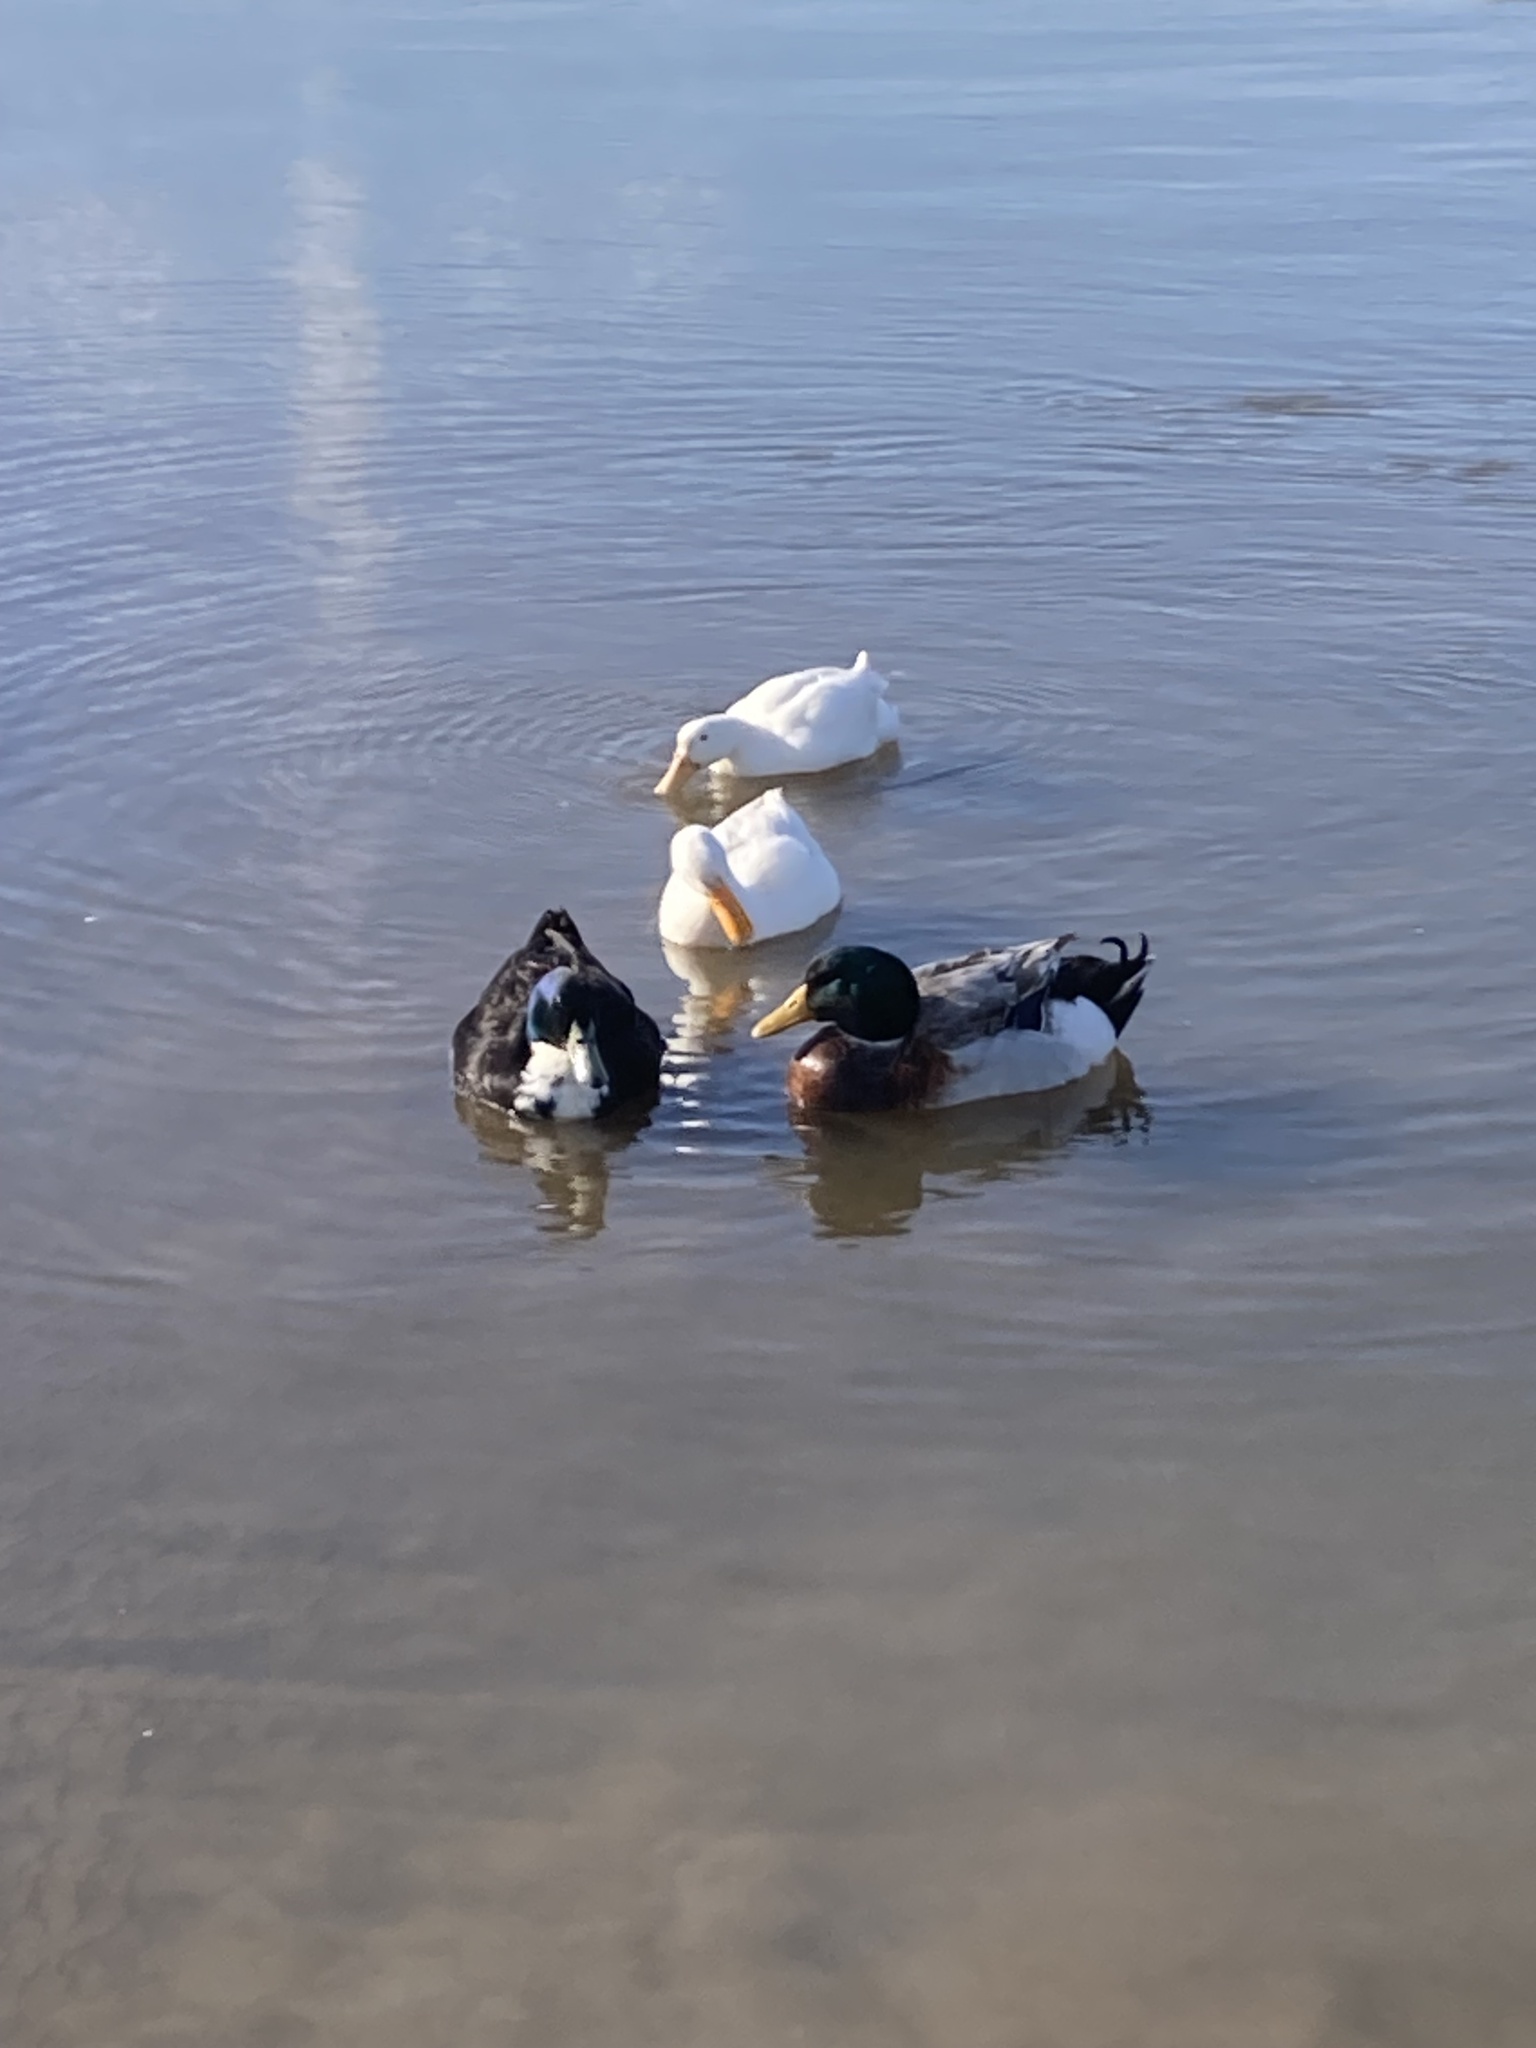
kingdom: Animalia
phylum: Chordata
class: Aves
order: Anseriformes
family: Anatidae
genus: Anas
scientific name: Anas platyrhynchos
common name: Mallard
